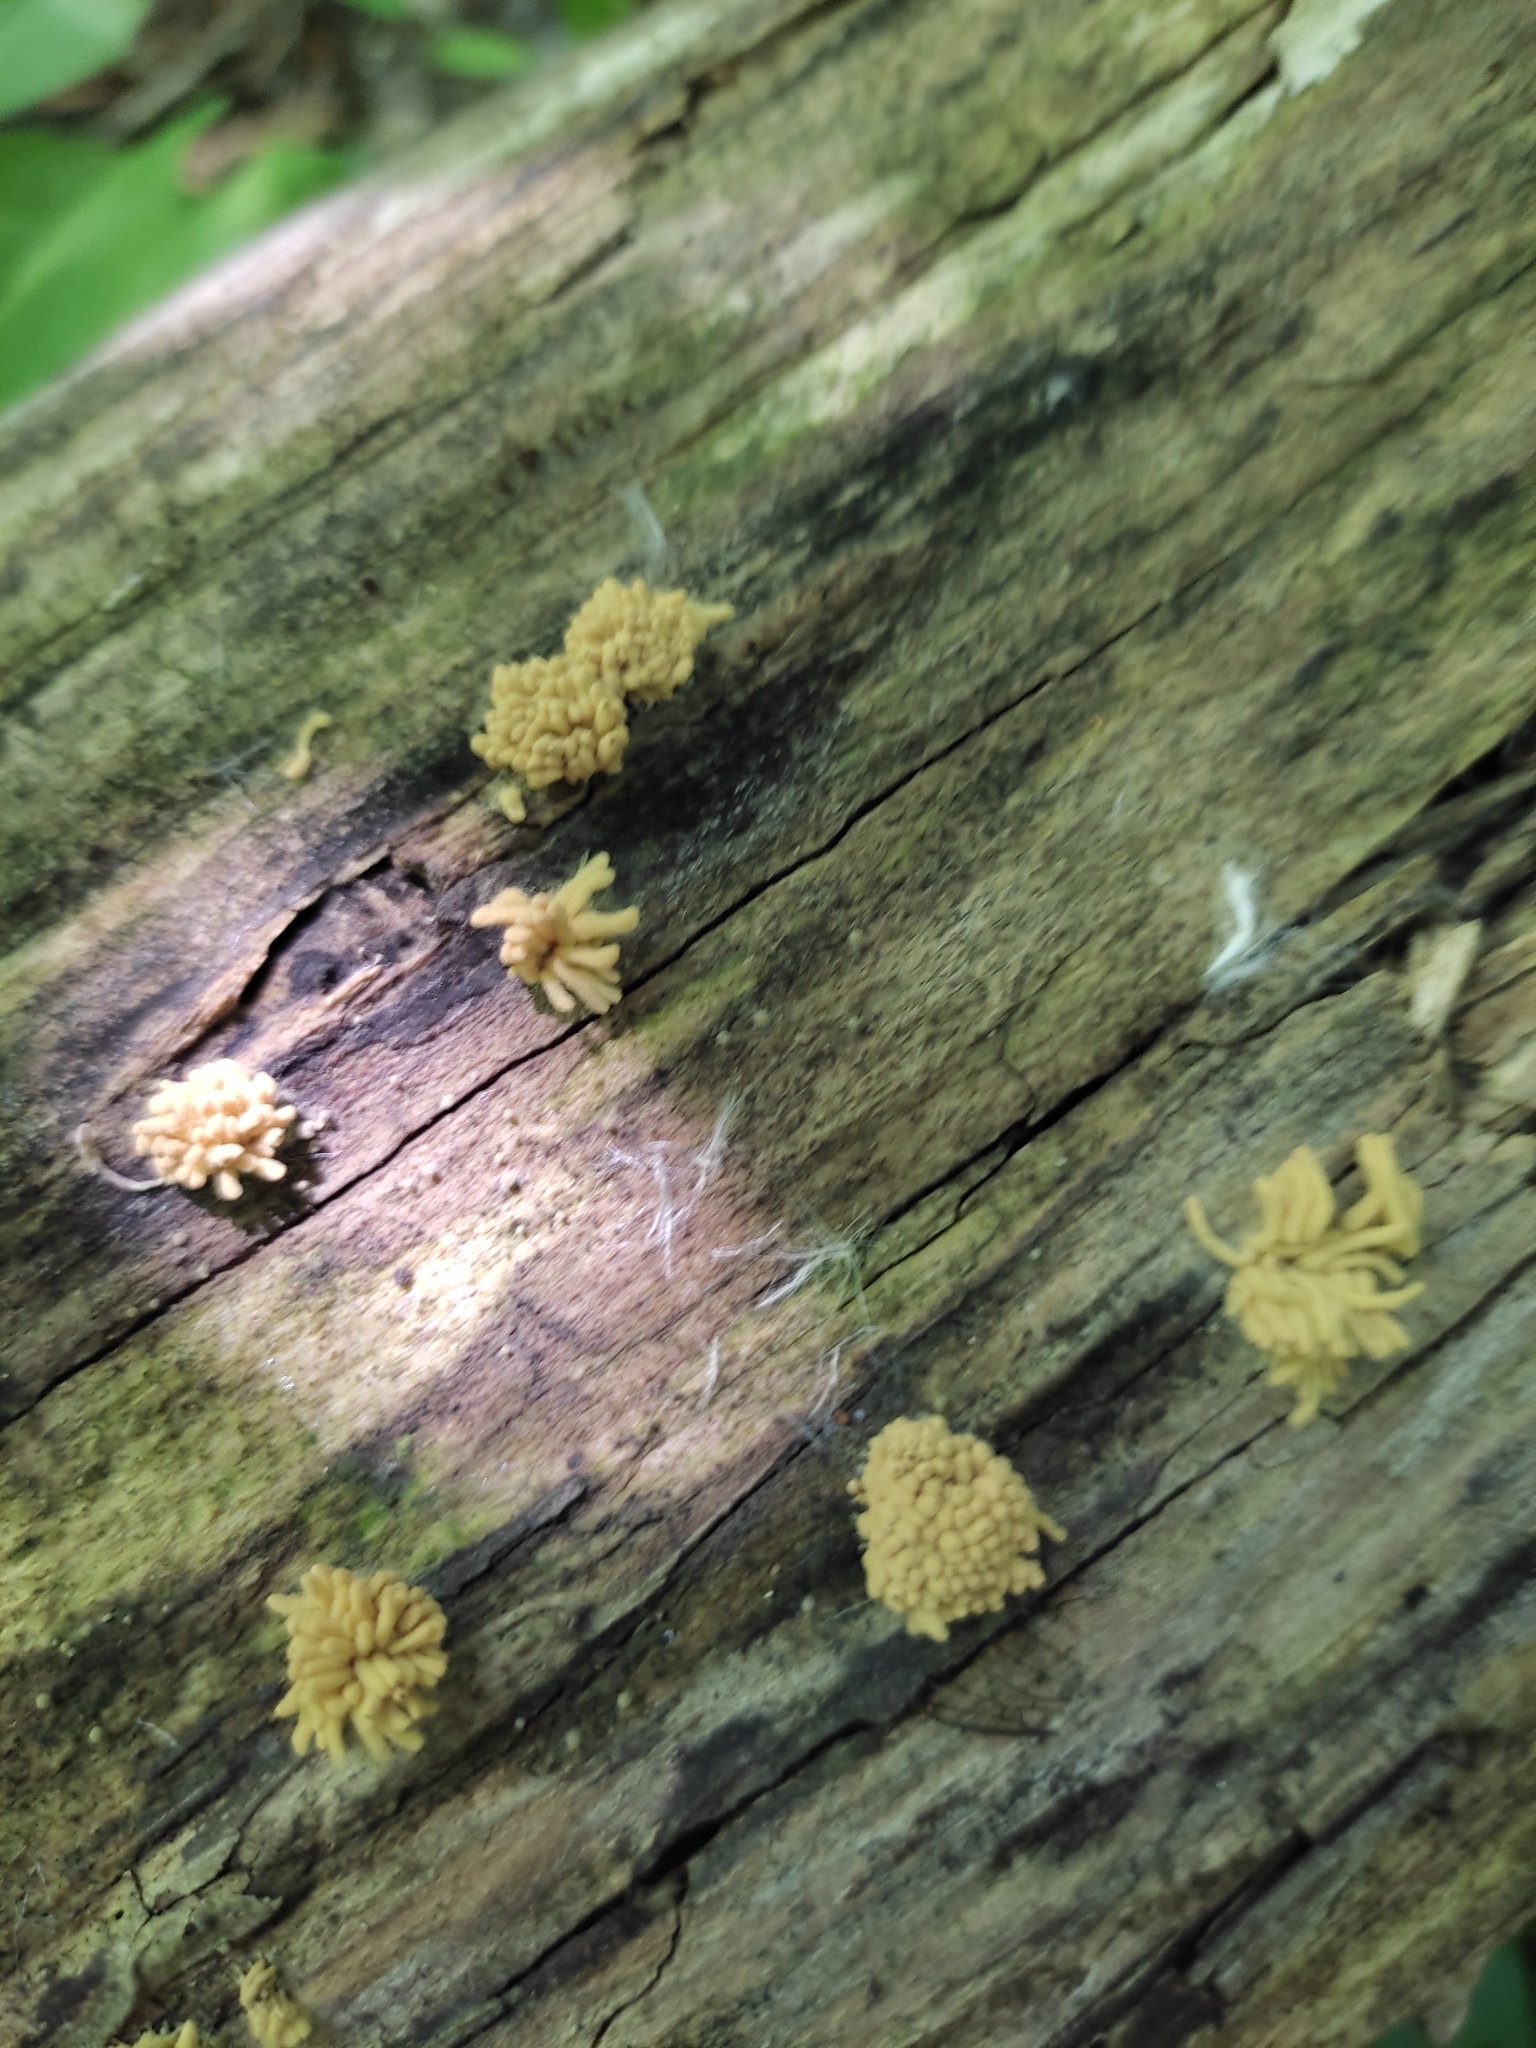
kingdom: Protozoa
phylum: Mycetozoa
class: Myxomycetes
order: Trichiales
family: Arcyriaceae
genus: Arcyria
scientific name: Arcyria obvelata
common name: Yellow carnival candy slime
